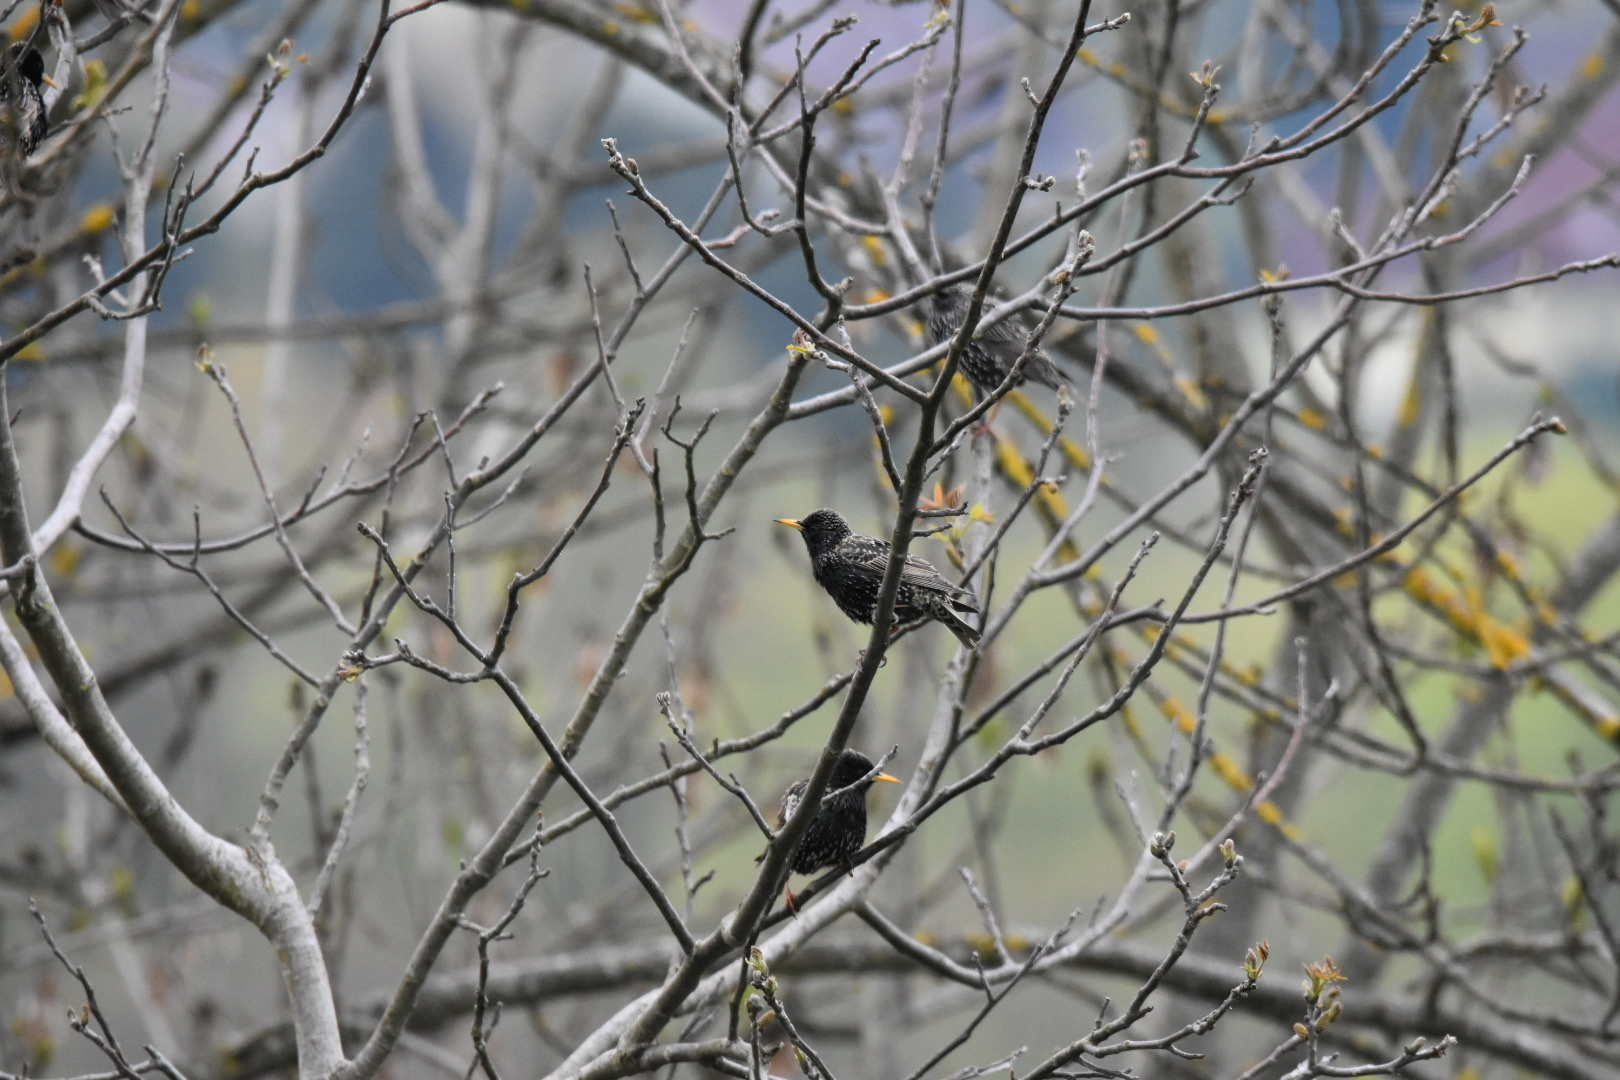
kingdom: Animalia
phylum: Chordata
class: Aves
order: Passeriformes
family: Sturnidae
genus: Sturnus
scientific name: Sturnus vulgaris
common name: Common starling
